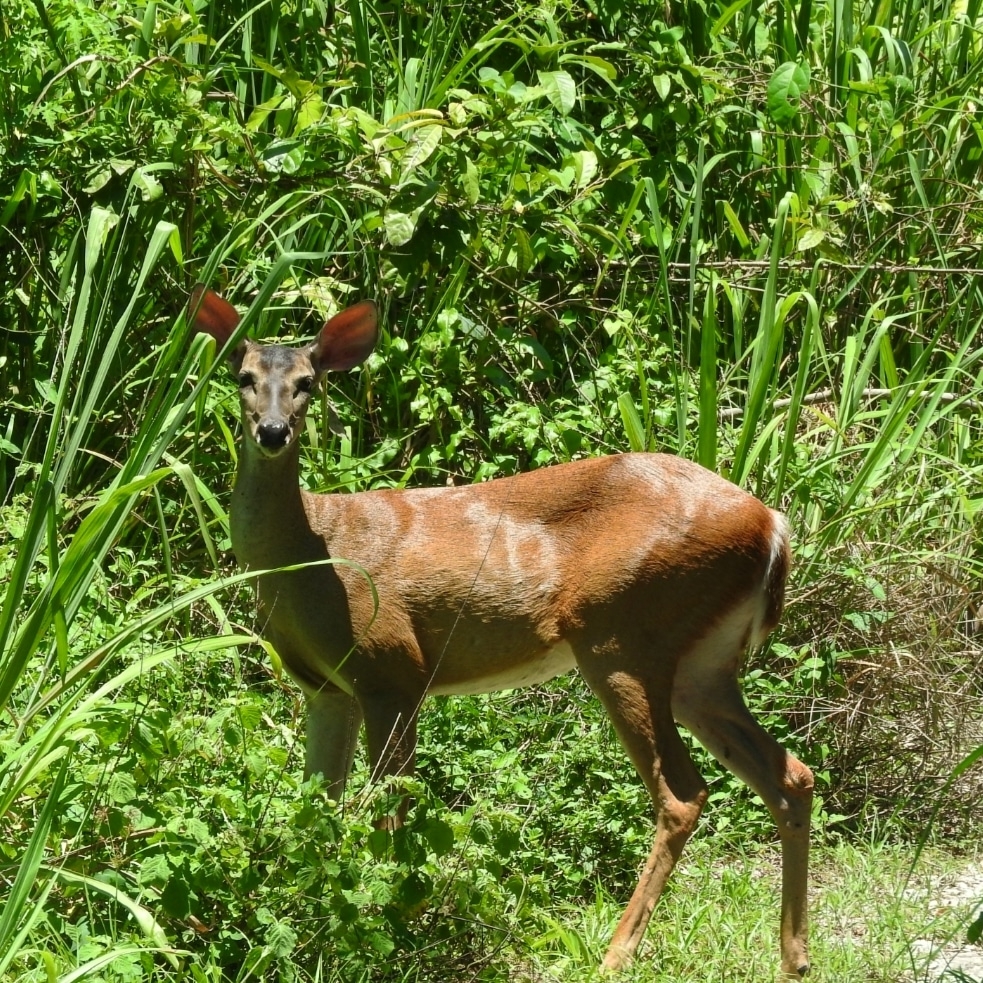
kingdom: Animalia
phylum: Chordata
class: Mammalia
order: Artiodactyla
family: Cervidae
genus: Odocoileus
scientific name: Odocoileus virginianus
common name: White-tailed deer
